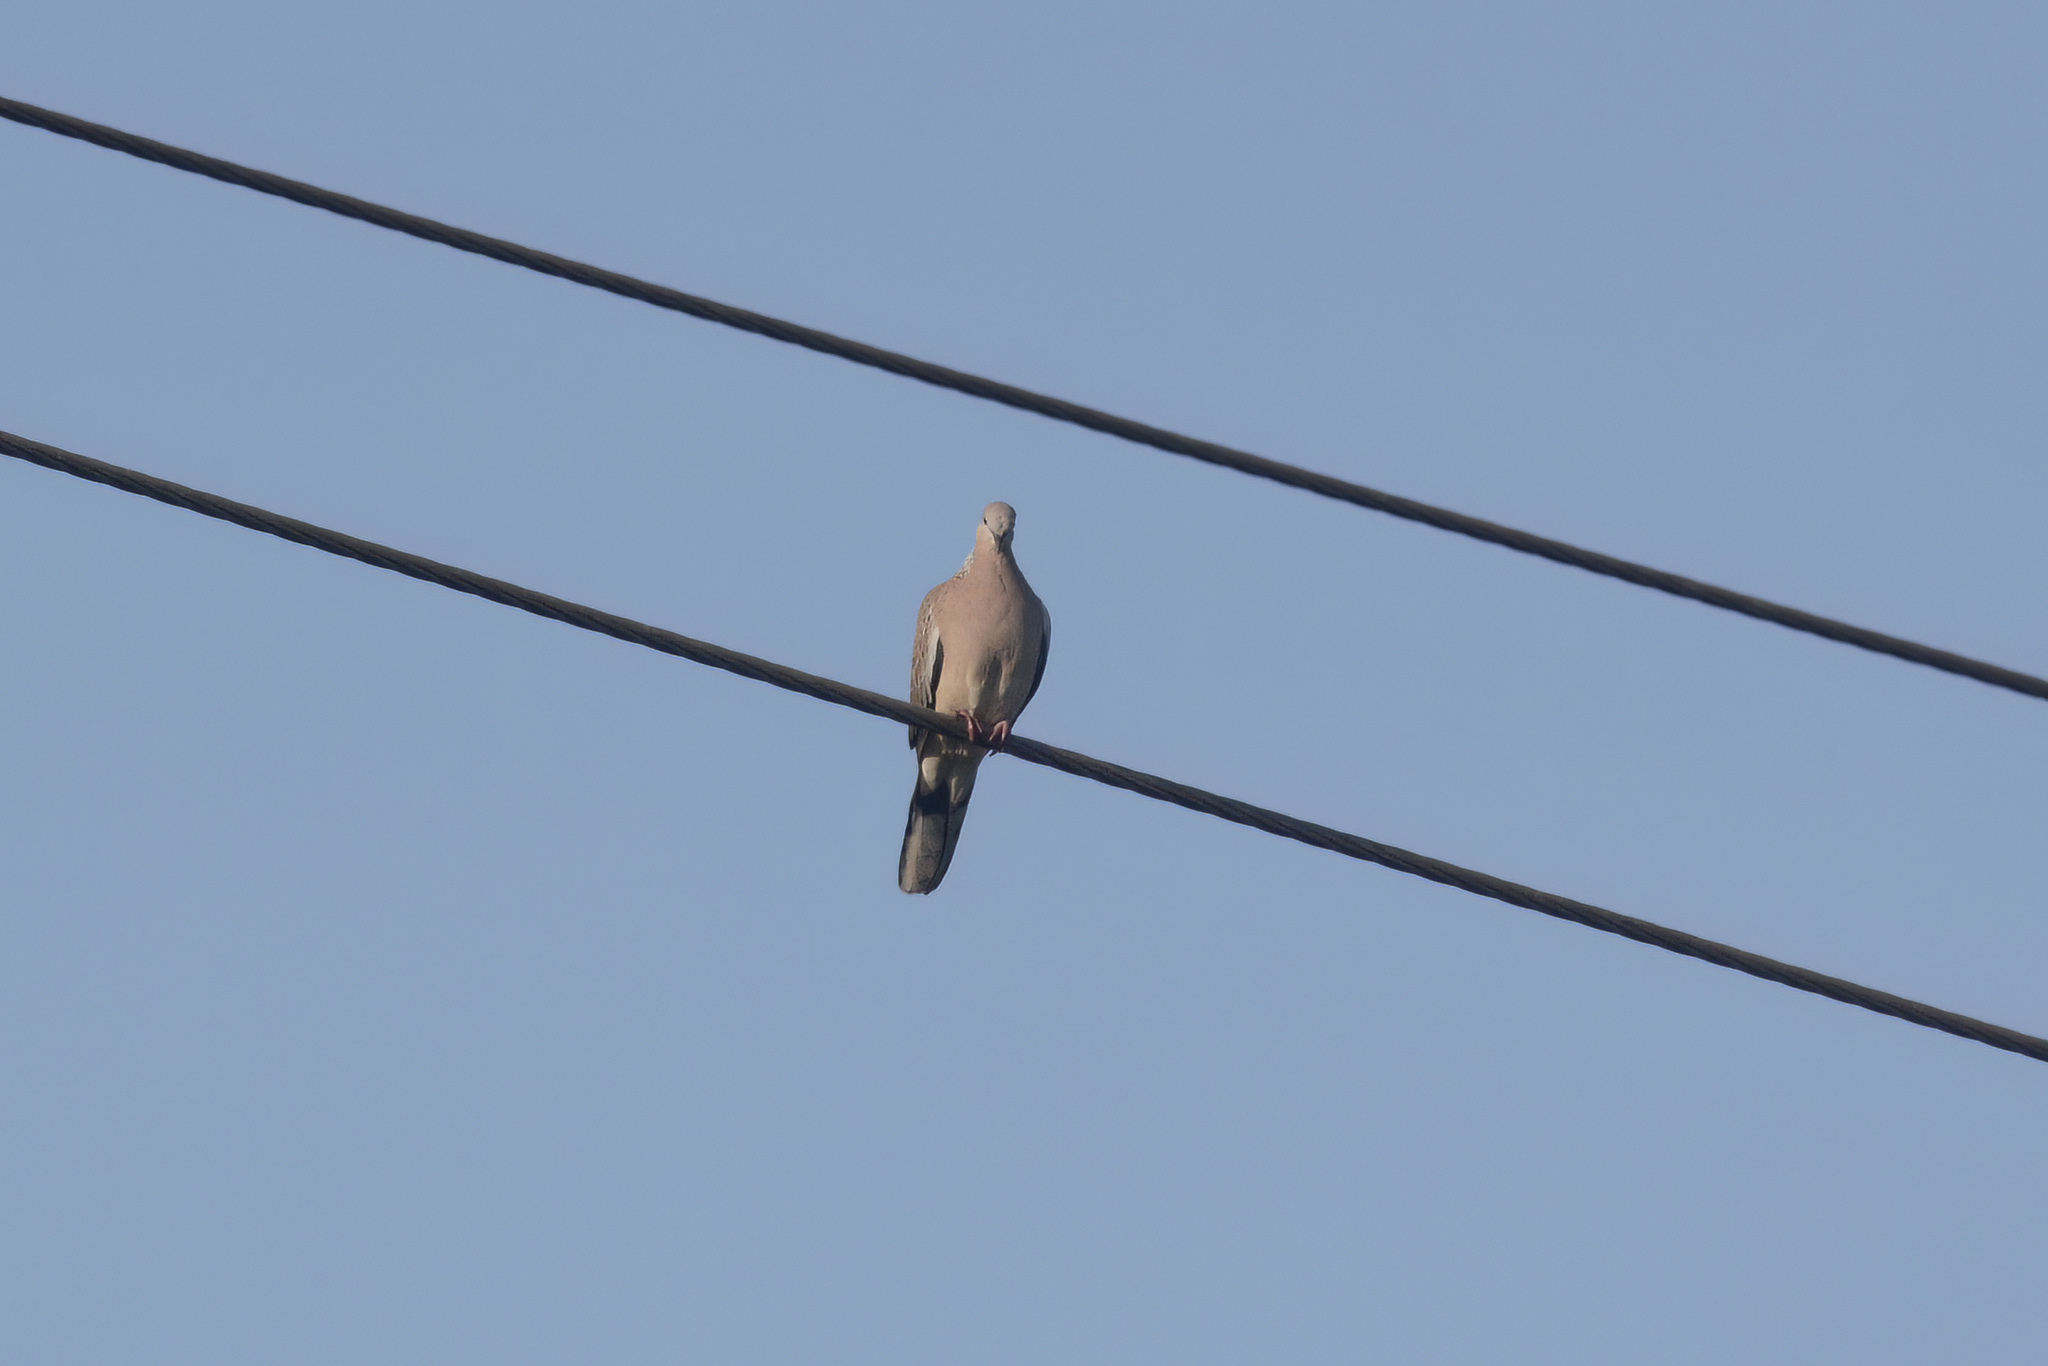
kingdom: Animalia
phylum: Chordata
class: Aves
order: Columbiformes
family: Columbidae
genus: Spilopelia
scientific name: Spilopelia chinensis
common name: Spotted dove
